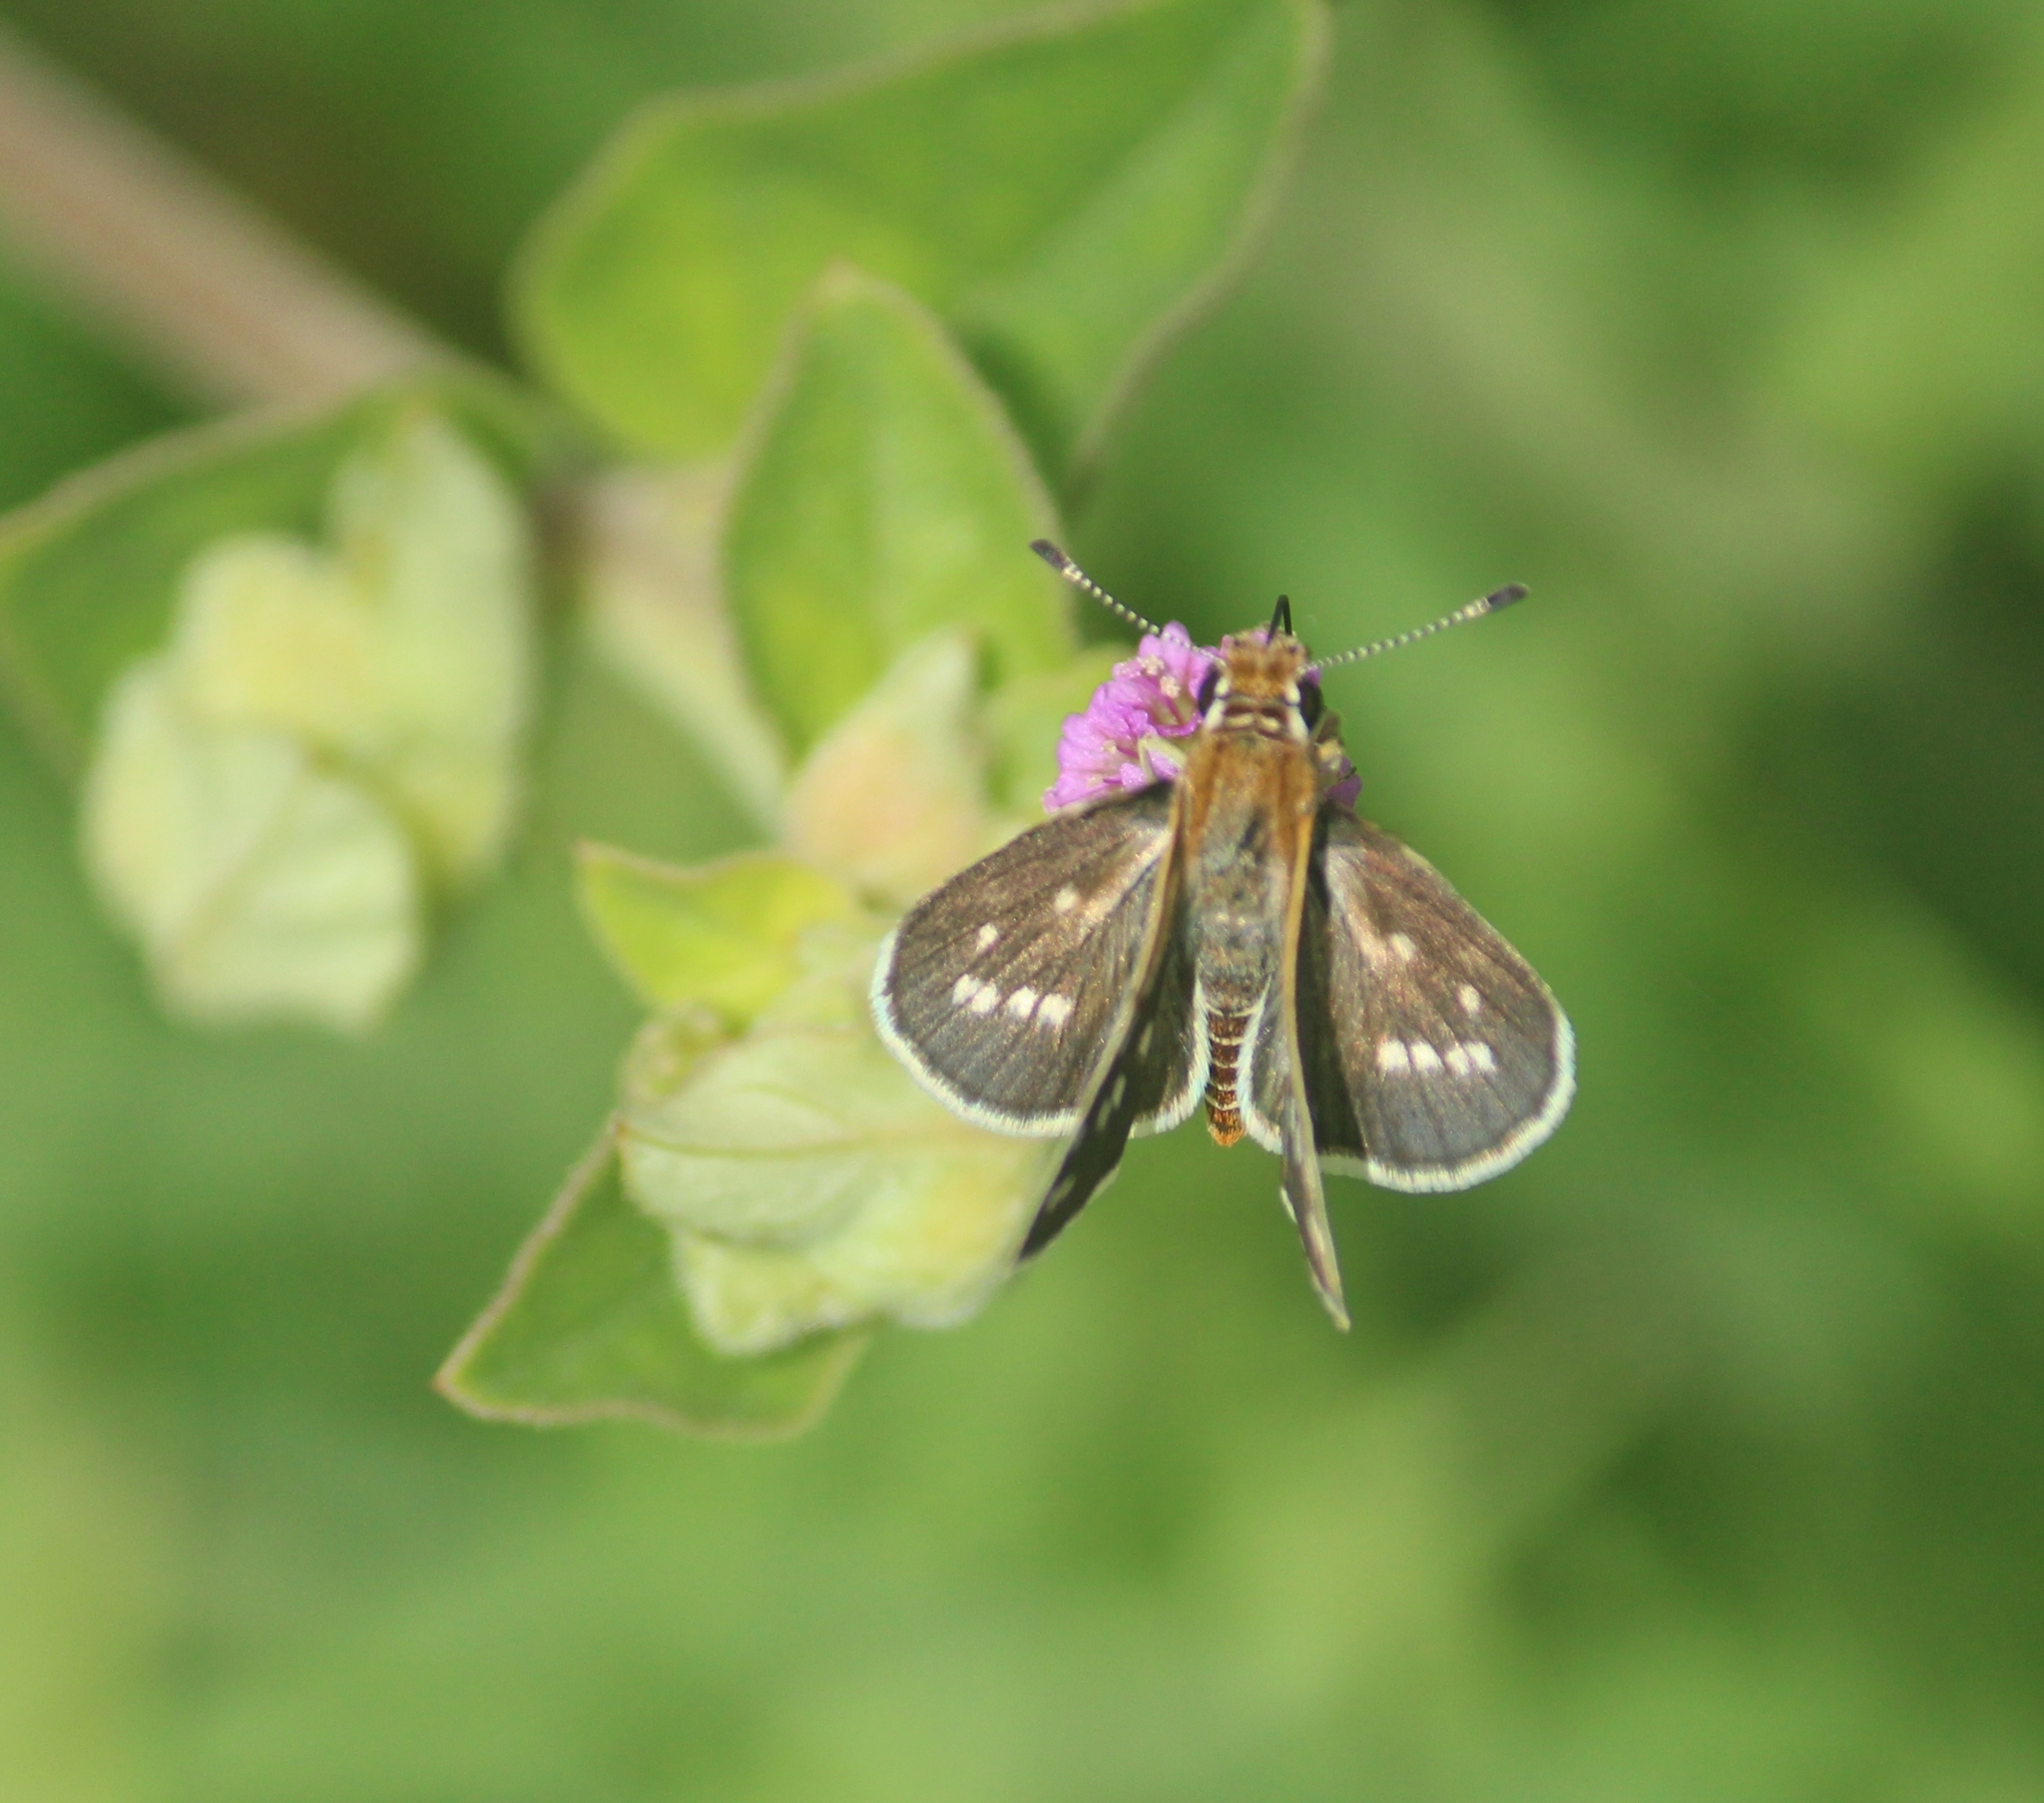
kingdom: Animalia
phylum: Arthropoda
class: Insecta
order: Lepidoptera
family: Hesperiidae
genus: Taractrocera
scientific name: Taractrocera maevius
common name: Common grass-dart
